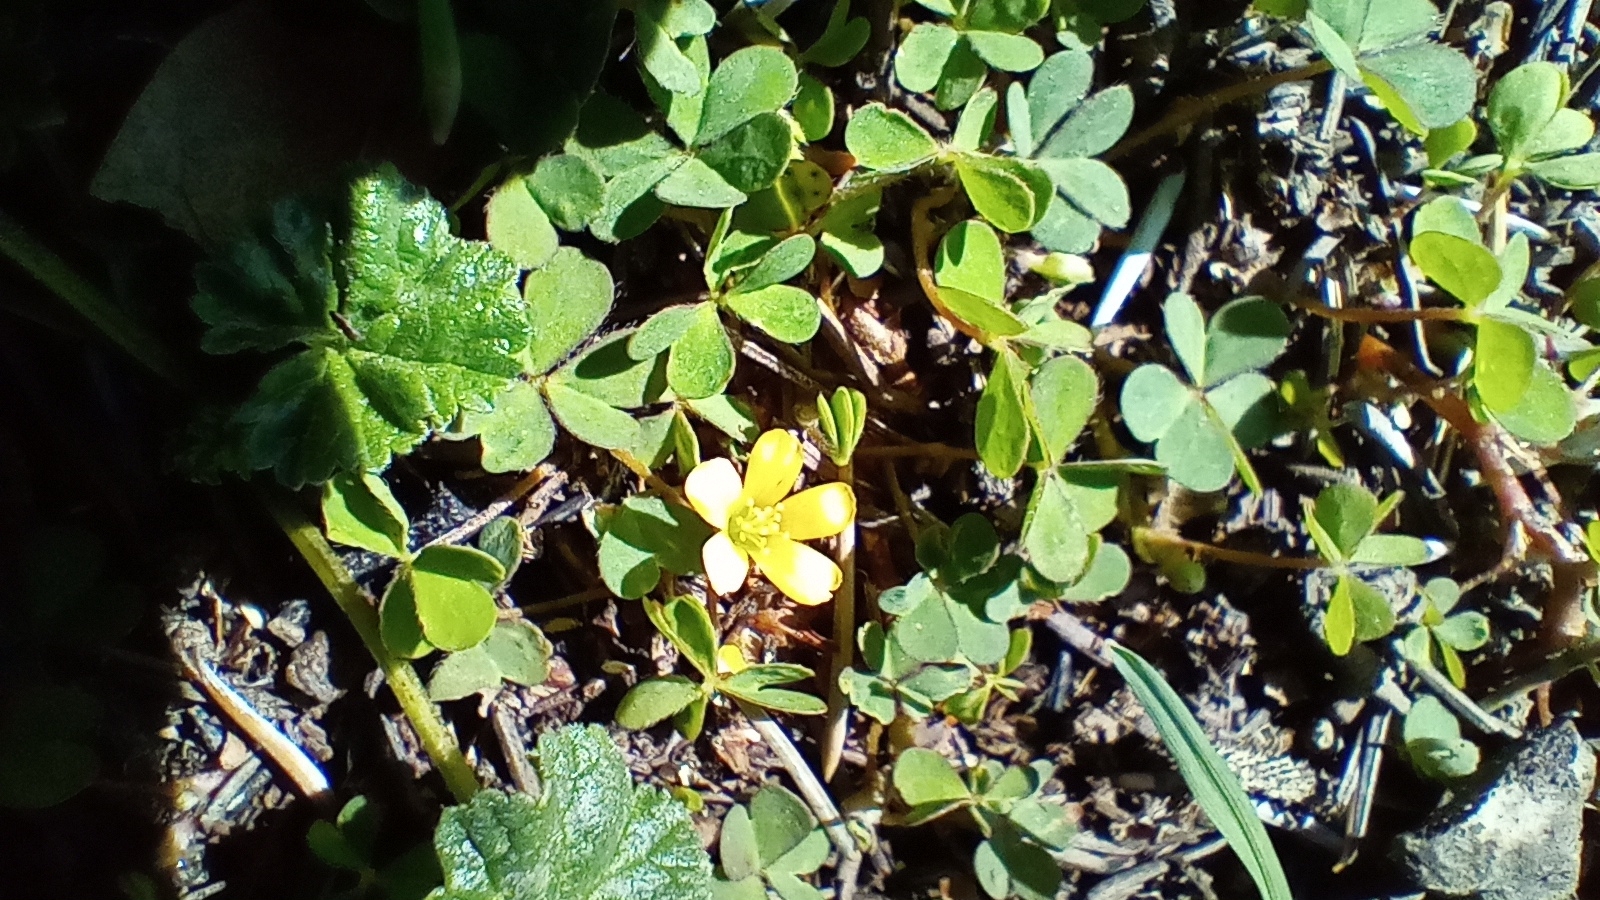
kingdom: Plantae
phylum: Tracheophyta
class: Magnoliopsida
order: Oxalidales
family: Oxalidaceae
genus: Oxalis
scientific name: Oxalis corniculata
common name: Procumbent yellow-sorrel
